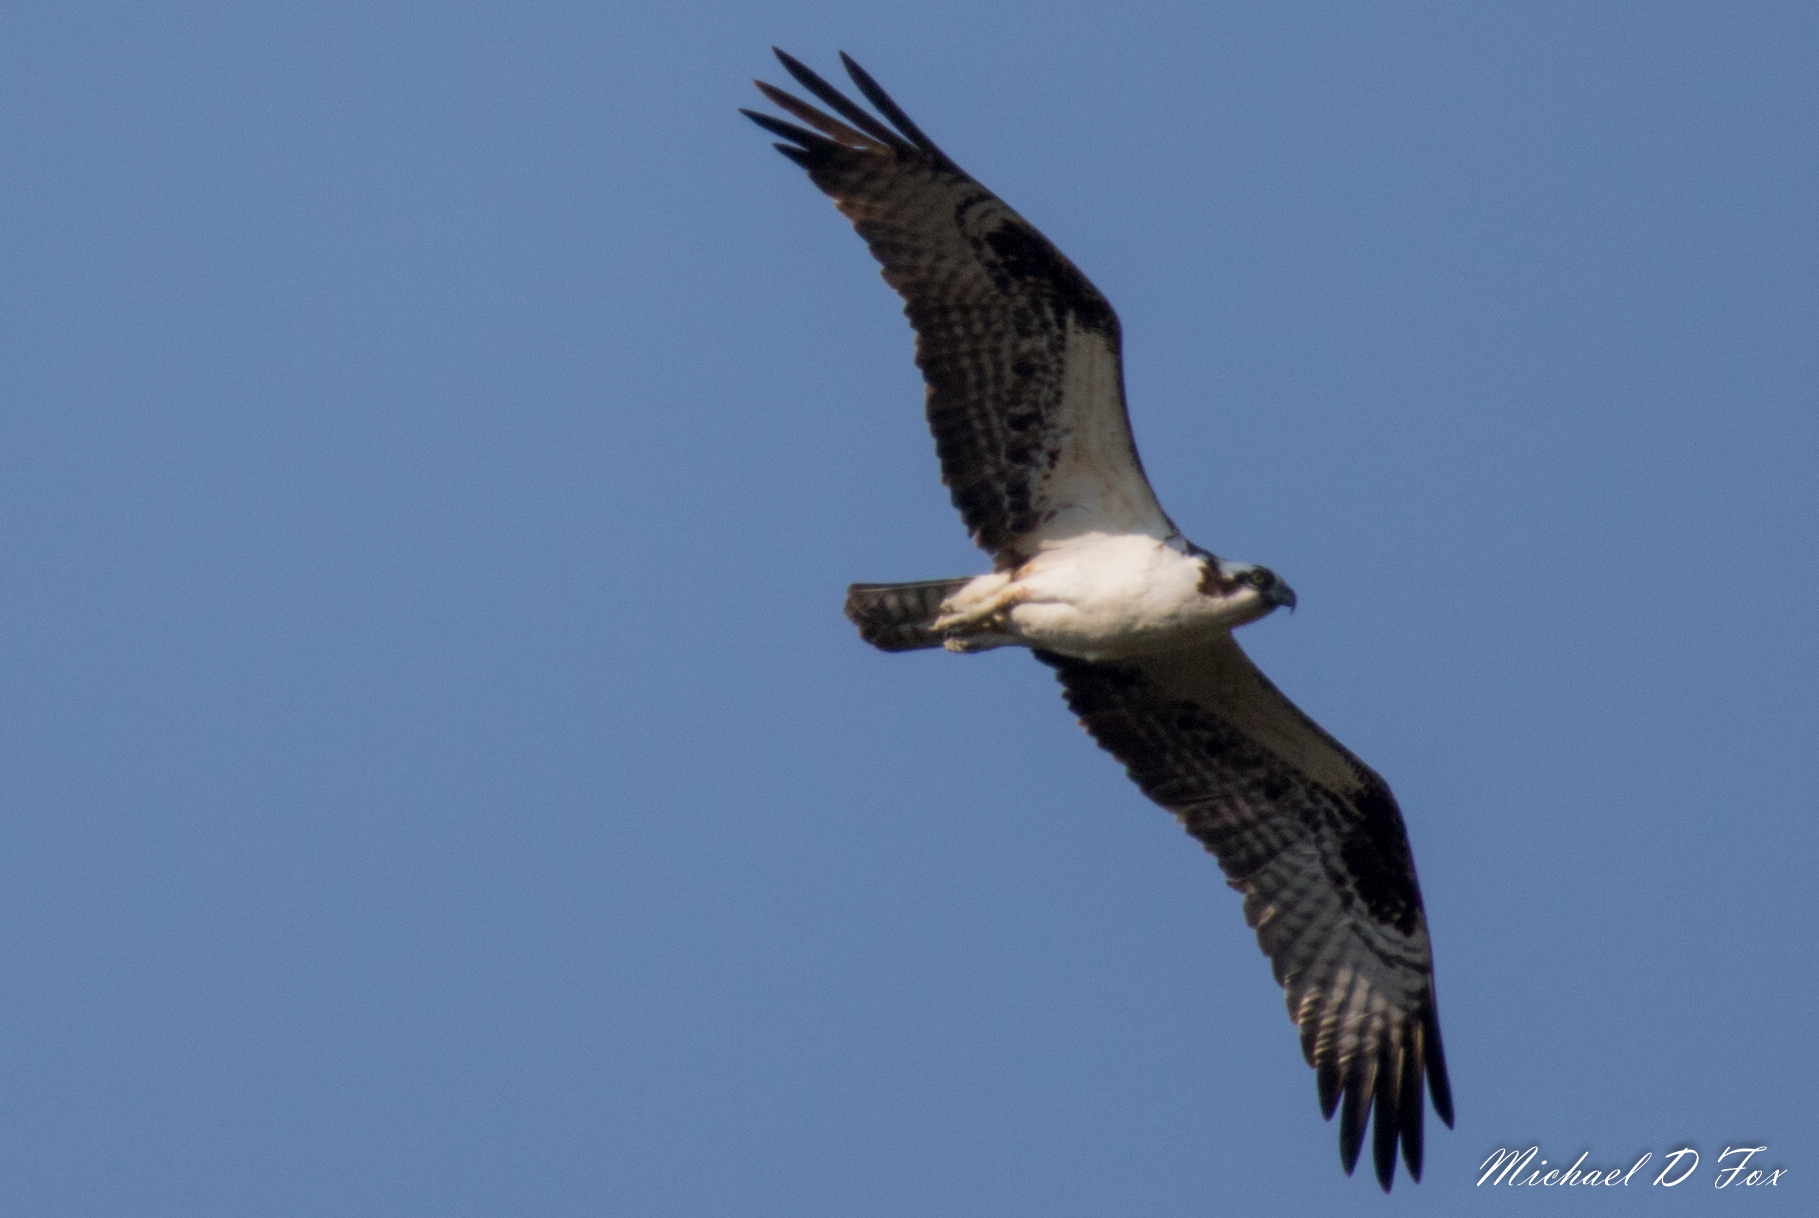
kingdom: Animalia
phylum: Chordata
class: Aves
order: Accipitriformes
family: Pandionidae
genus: Pandion
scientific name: Pandion haliaetus
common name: Osprey
